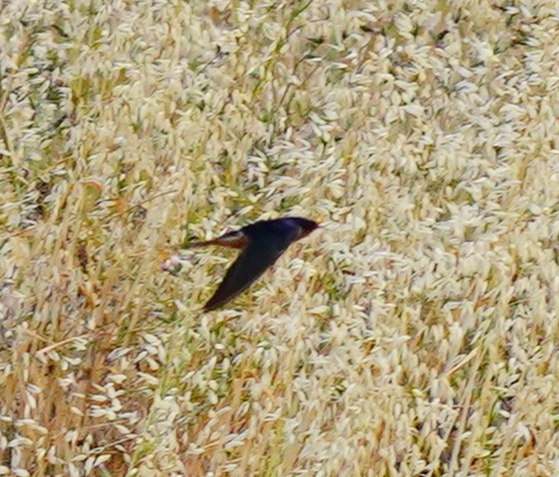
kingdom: Animalia
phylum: Chordata
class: Aves
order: Passeriformes
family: Hirundinidae
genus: Hirundo
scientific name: Hirundo rustica
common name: Barn swallow
